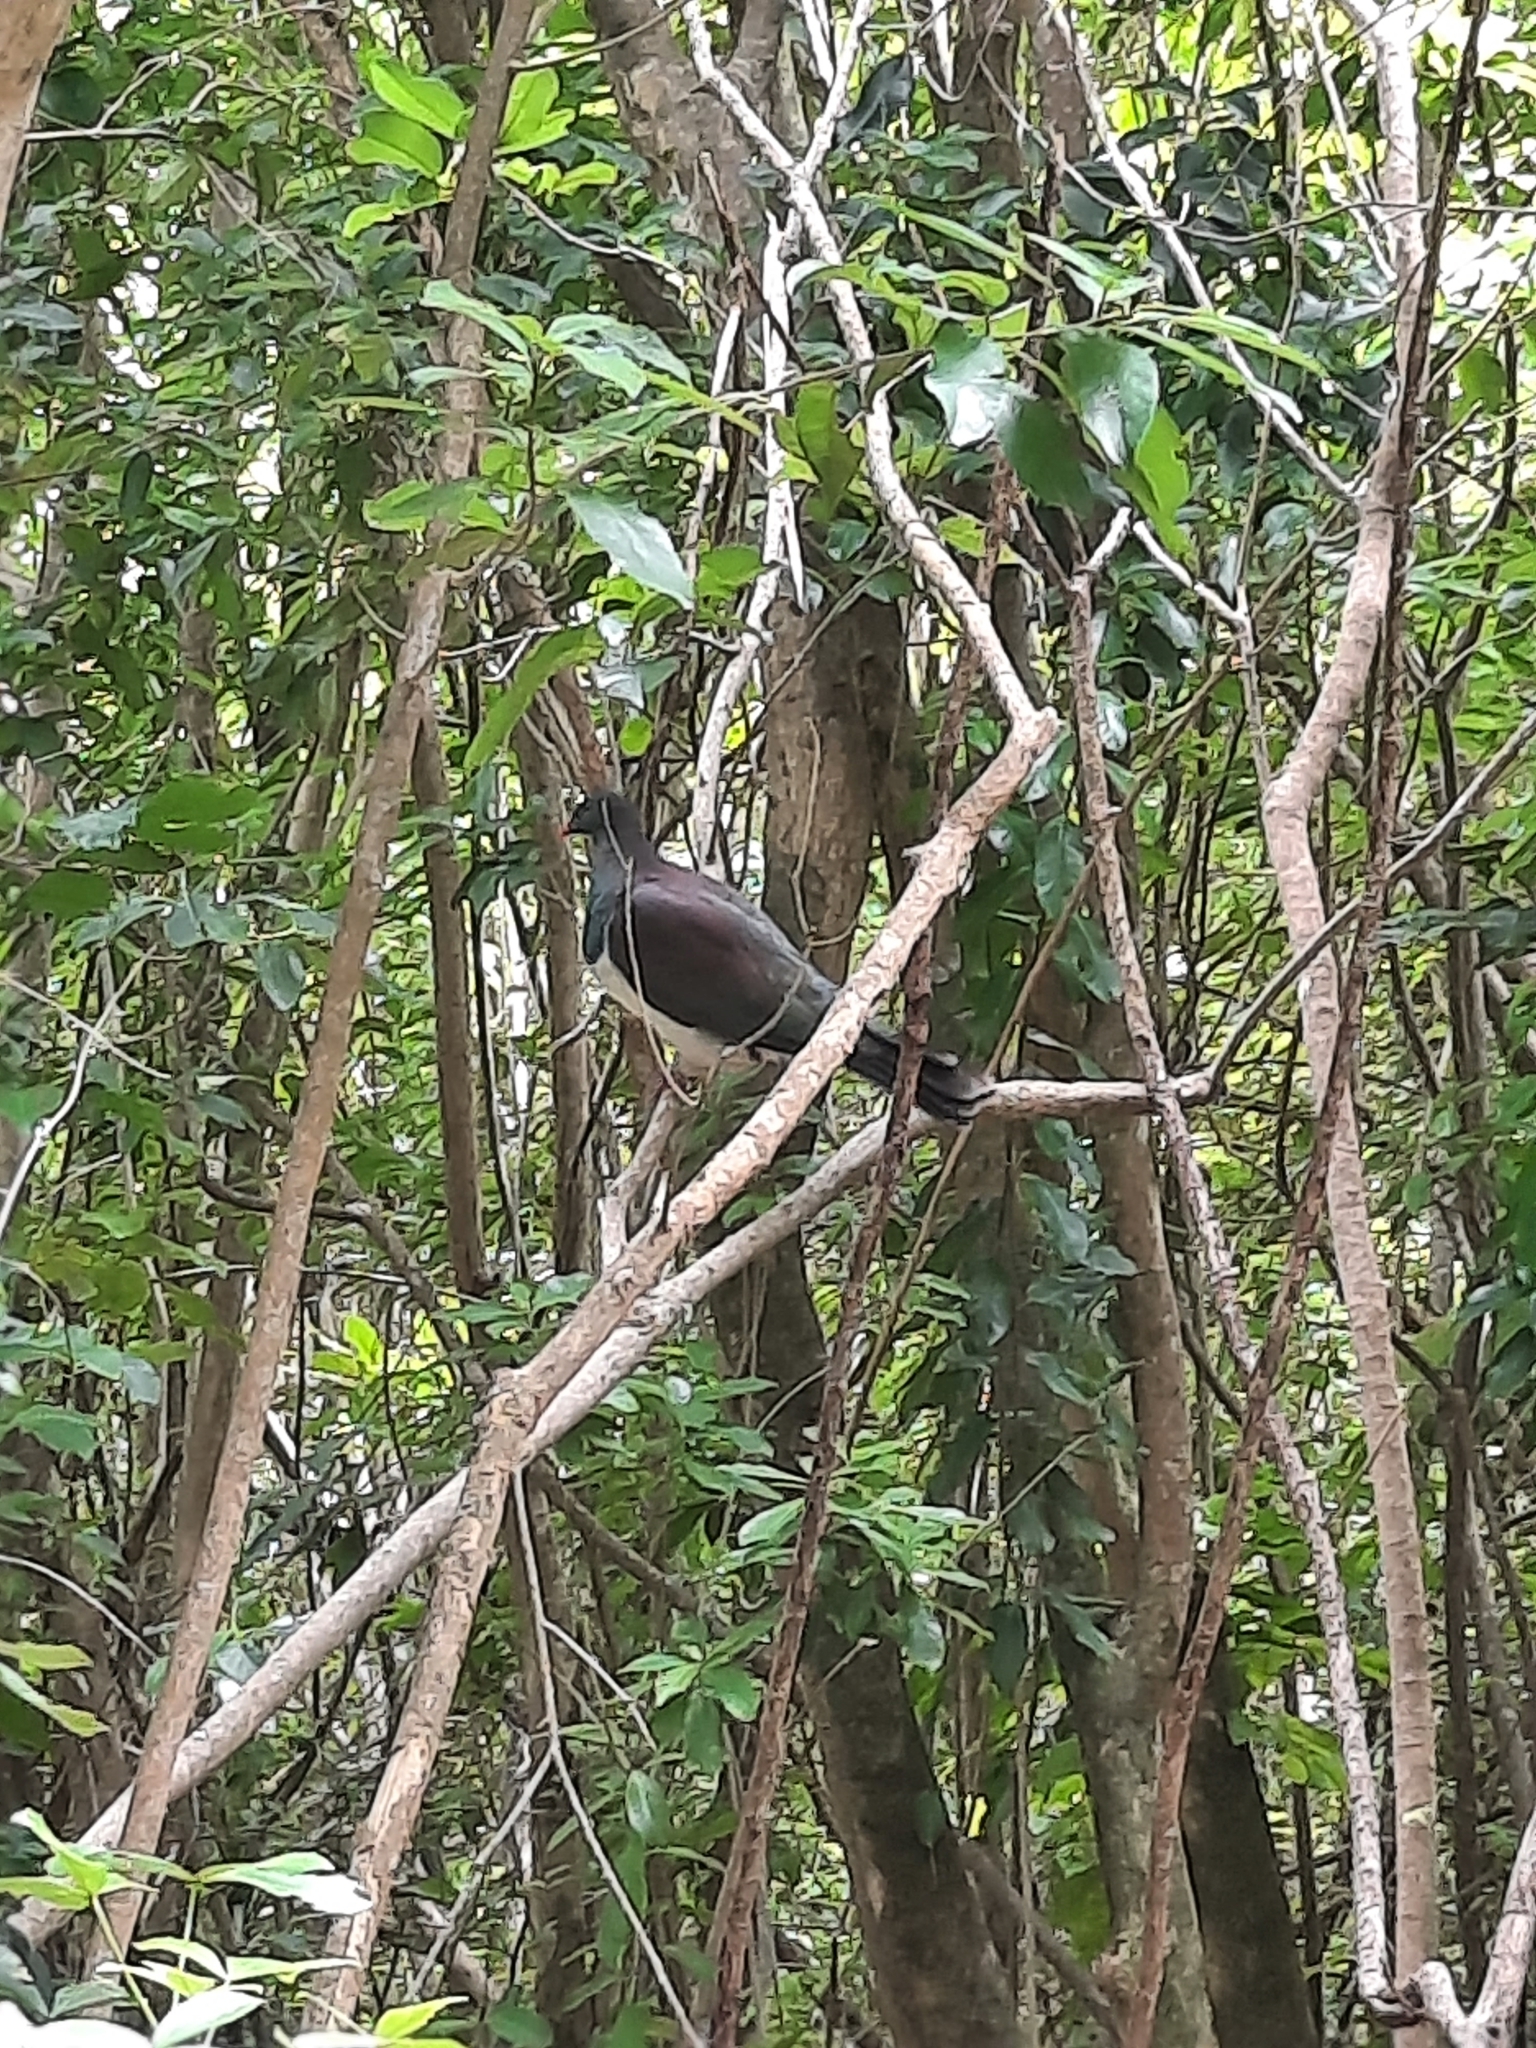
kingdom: Animalia
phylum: Chordata
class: Aves
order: Columbiformes
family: Columbidae
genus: Hemiphaga
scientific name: Hemiphaga novaeseelandiae
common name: New zealand pigeon
